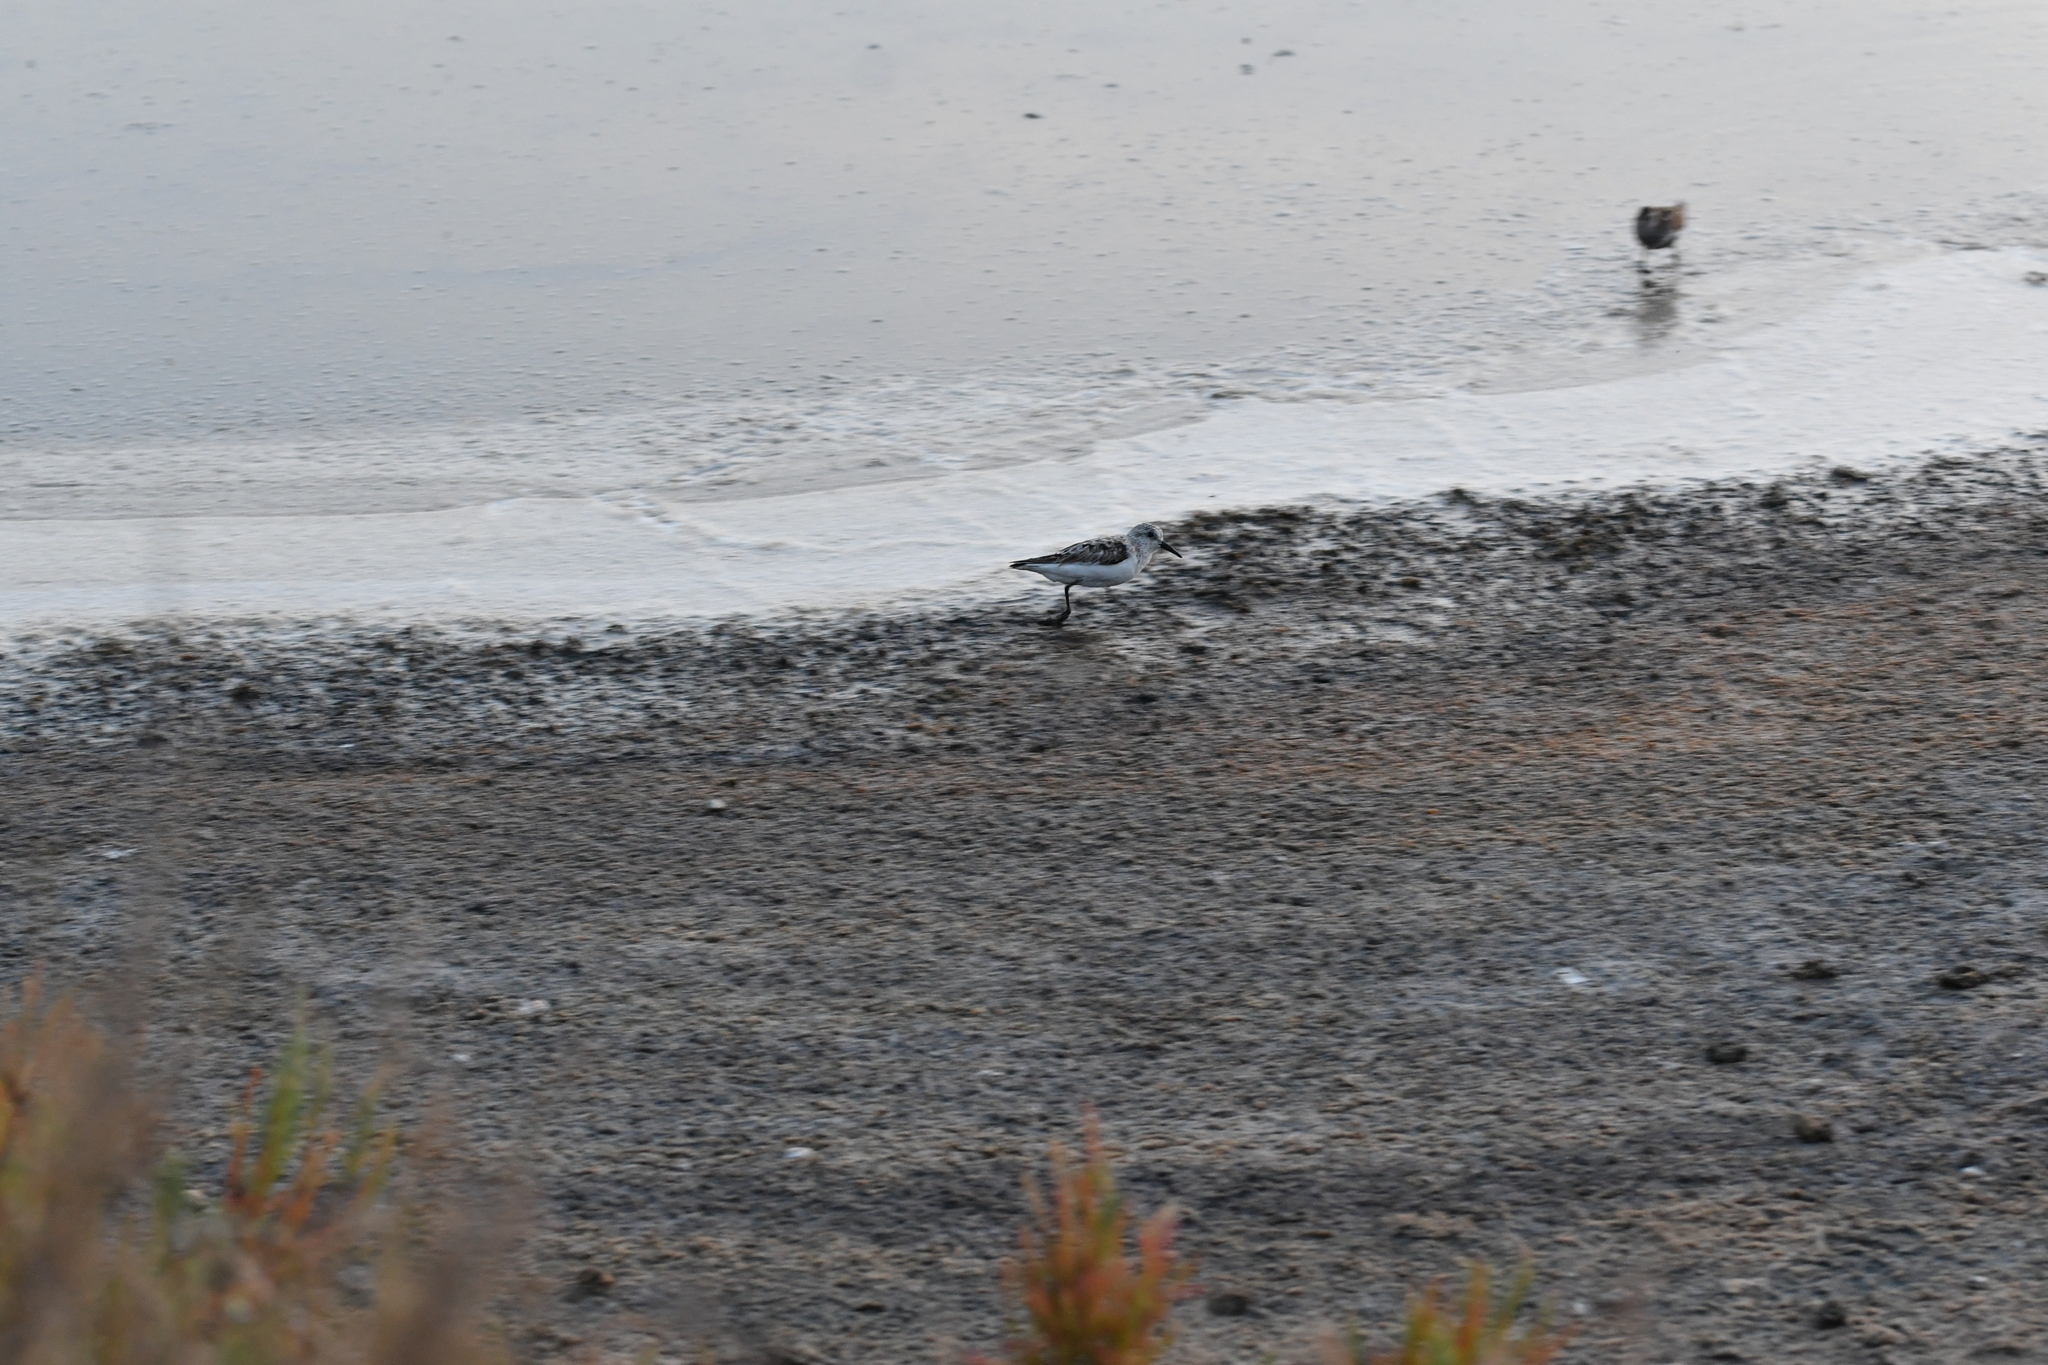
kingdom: Animalia
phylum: Chordata
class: Aves
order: Charadriiformes
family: Scolopacidae
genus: Calidris
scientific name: Calidris alba
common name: Sanderling
